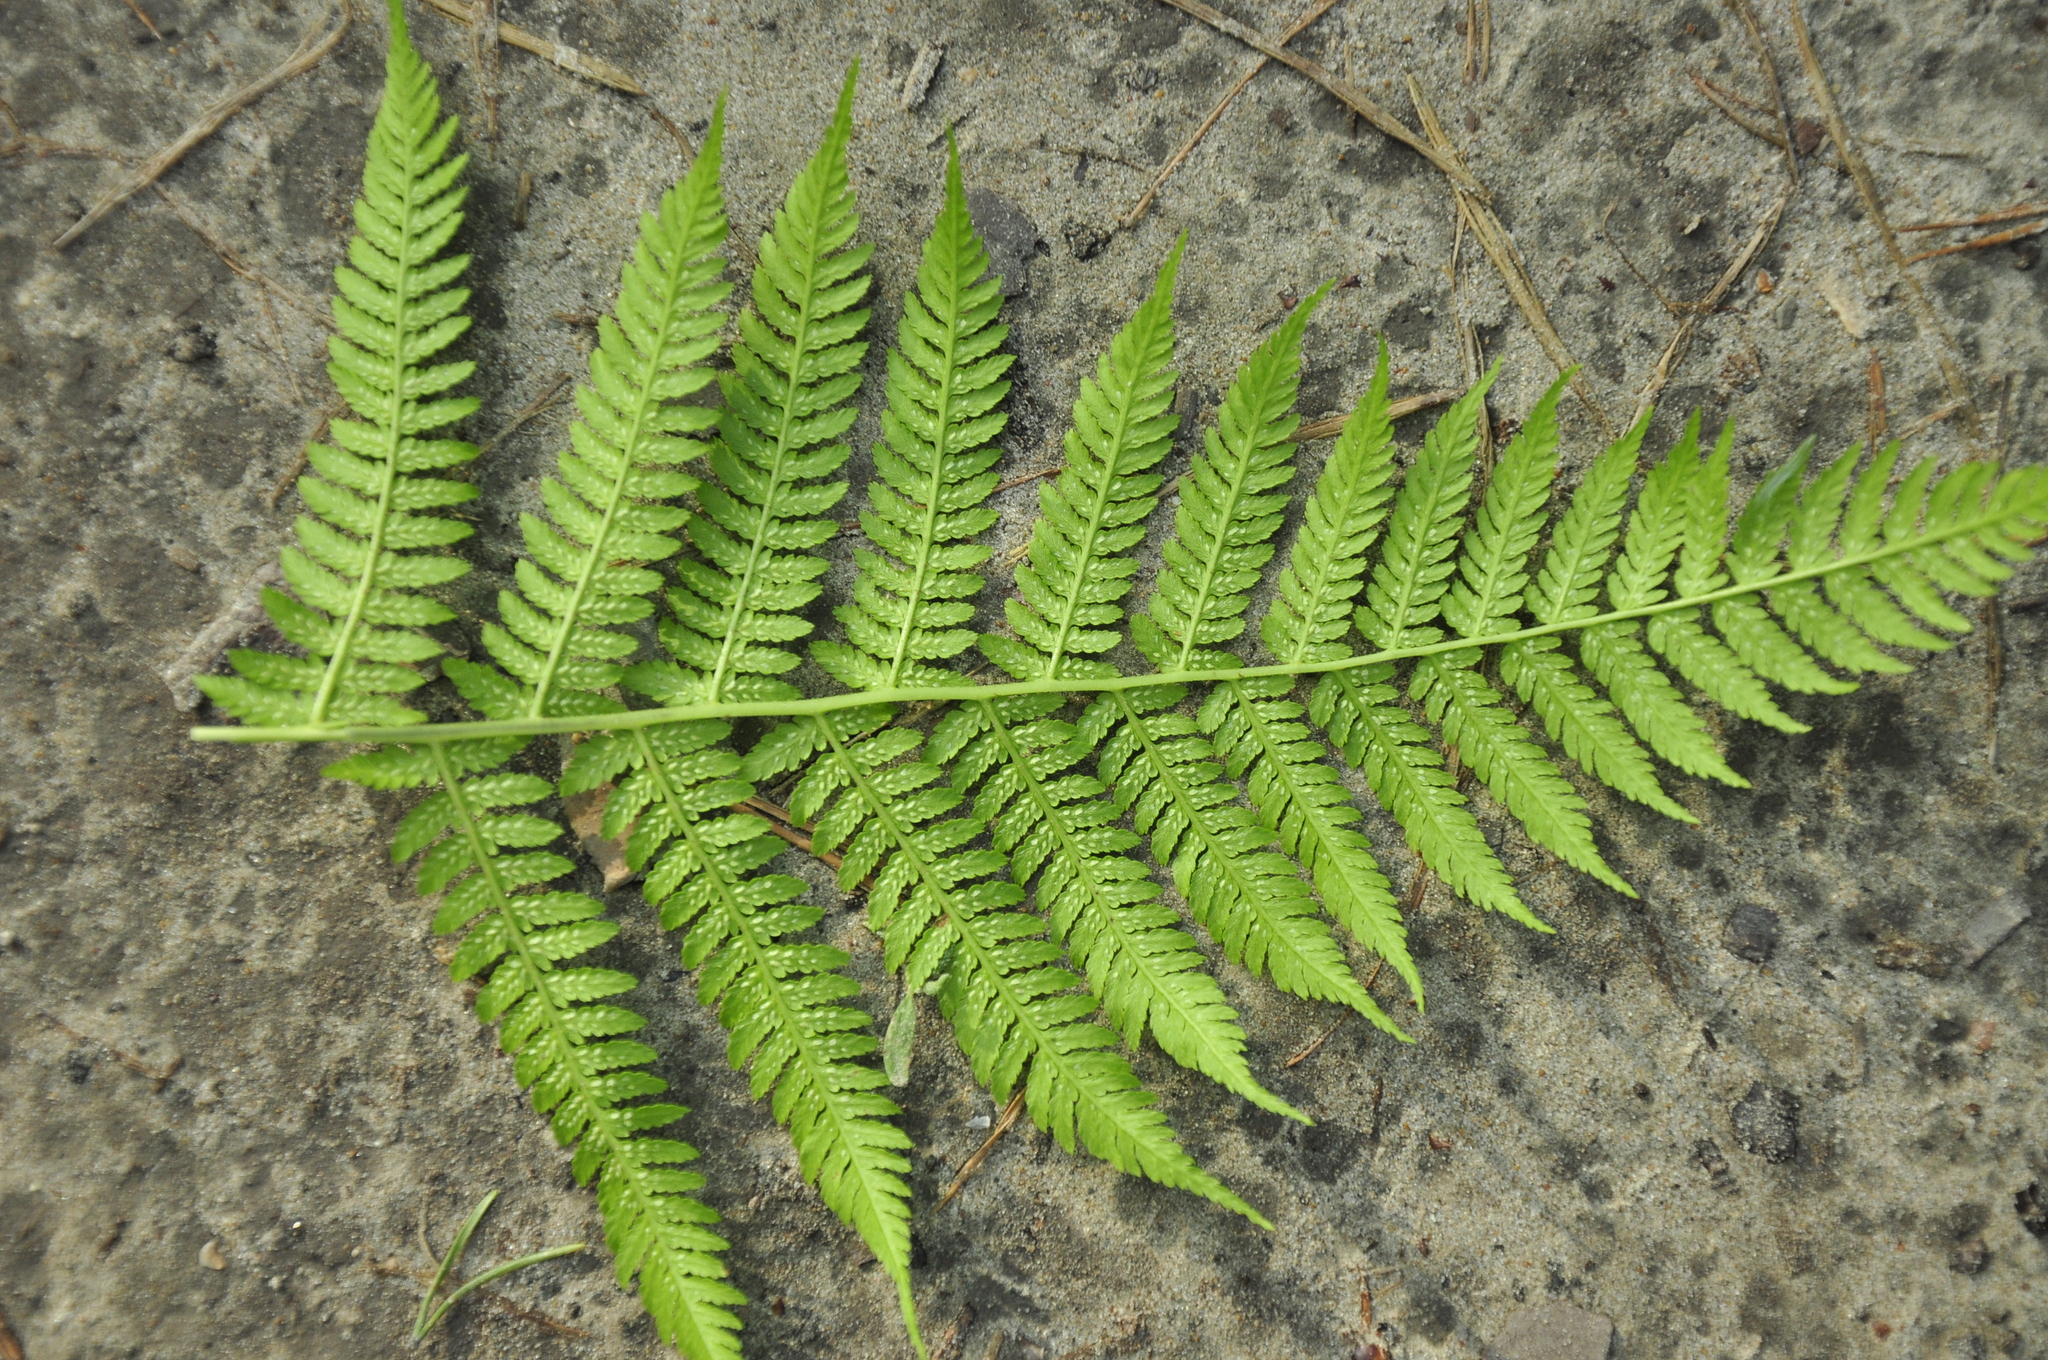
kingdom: Plantae
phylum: Tracheophyta
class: Polypodiopsida
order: Polypodiales
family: Athyriaceae
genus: Athyrium
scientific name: Athyrium filix-femina
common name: Lady fern
